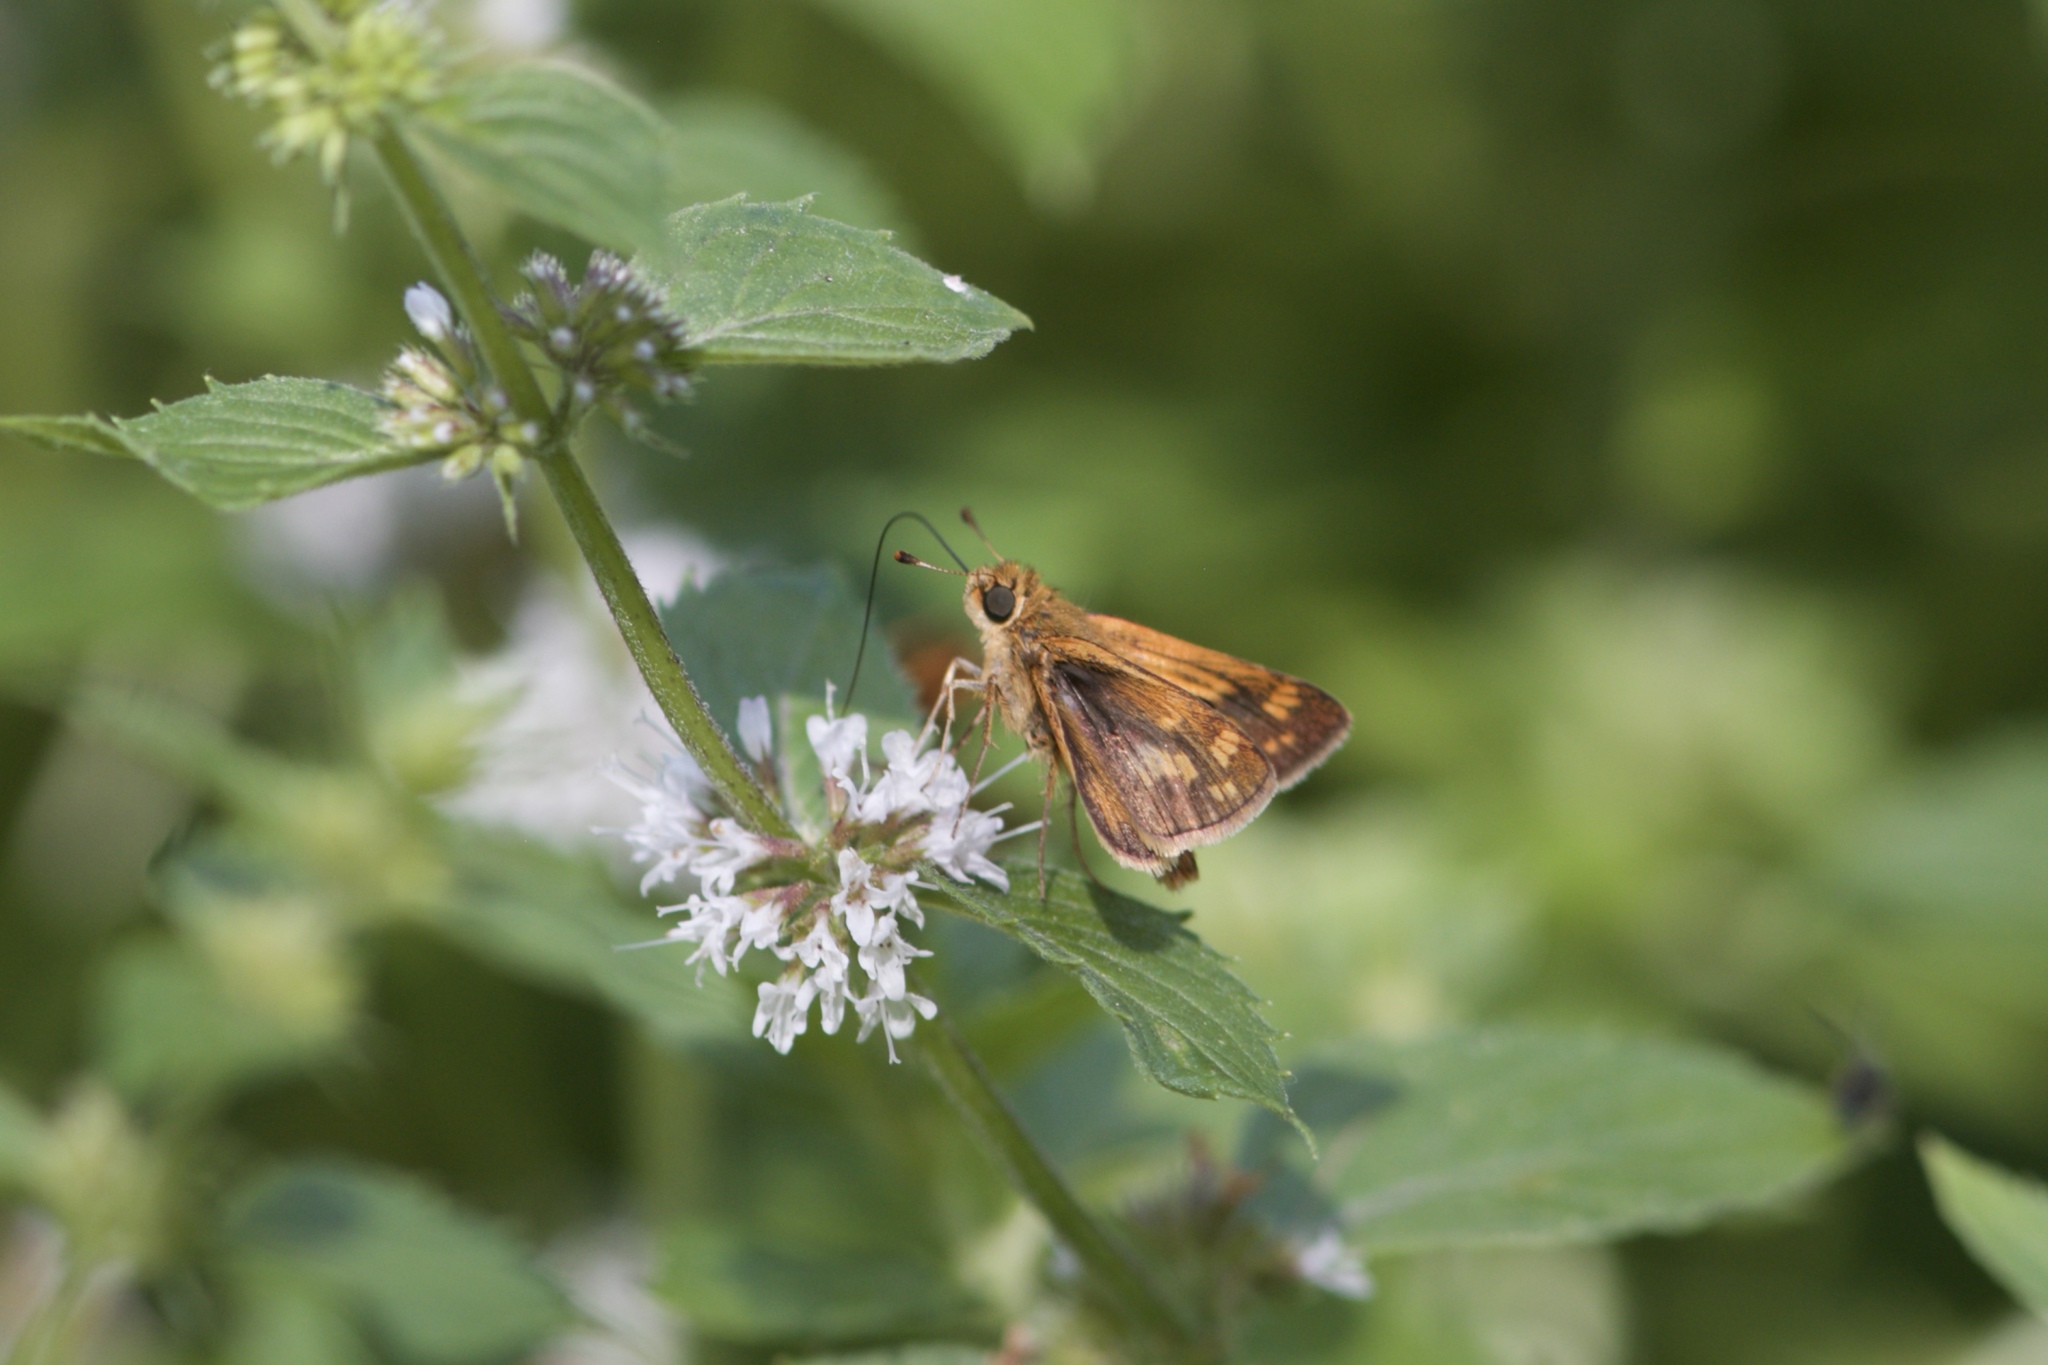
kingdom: Animalia
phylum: Arthropoda
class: Insecta
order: Lepidoptera
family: Hesperiidae
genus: Polites
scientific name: Polites coras
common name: Peck's skipper
